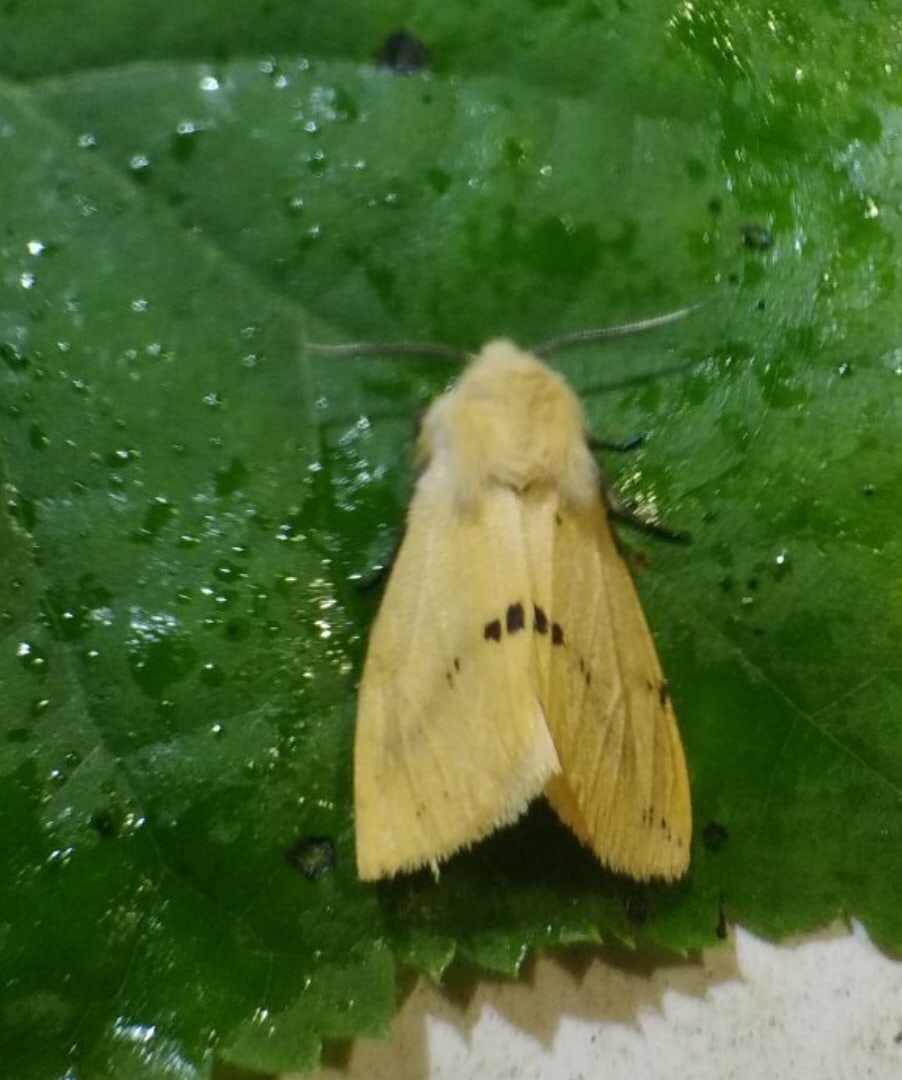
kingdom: Animalia
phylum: Arthropoda
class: Insecta
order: Lepidoptera
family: Erebidae
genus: Spilarctia
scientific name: Spilarctia lutea
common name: Buff ermine
